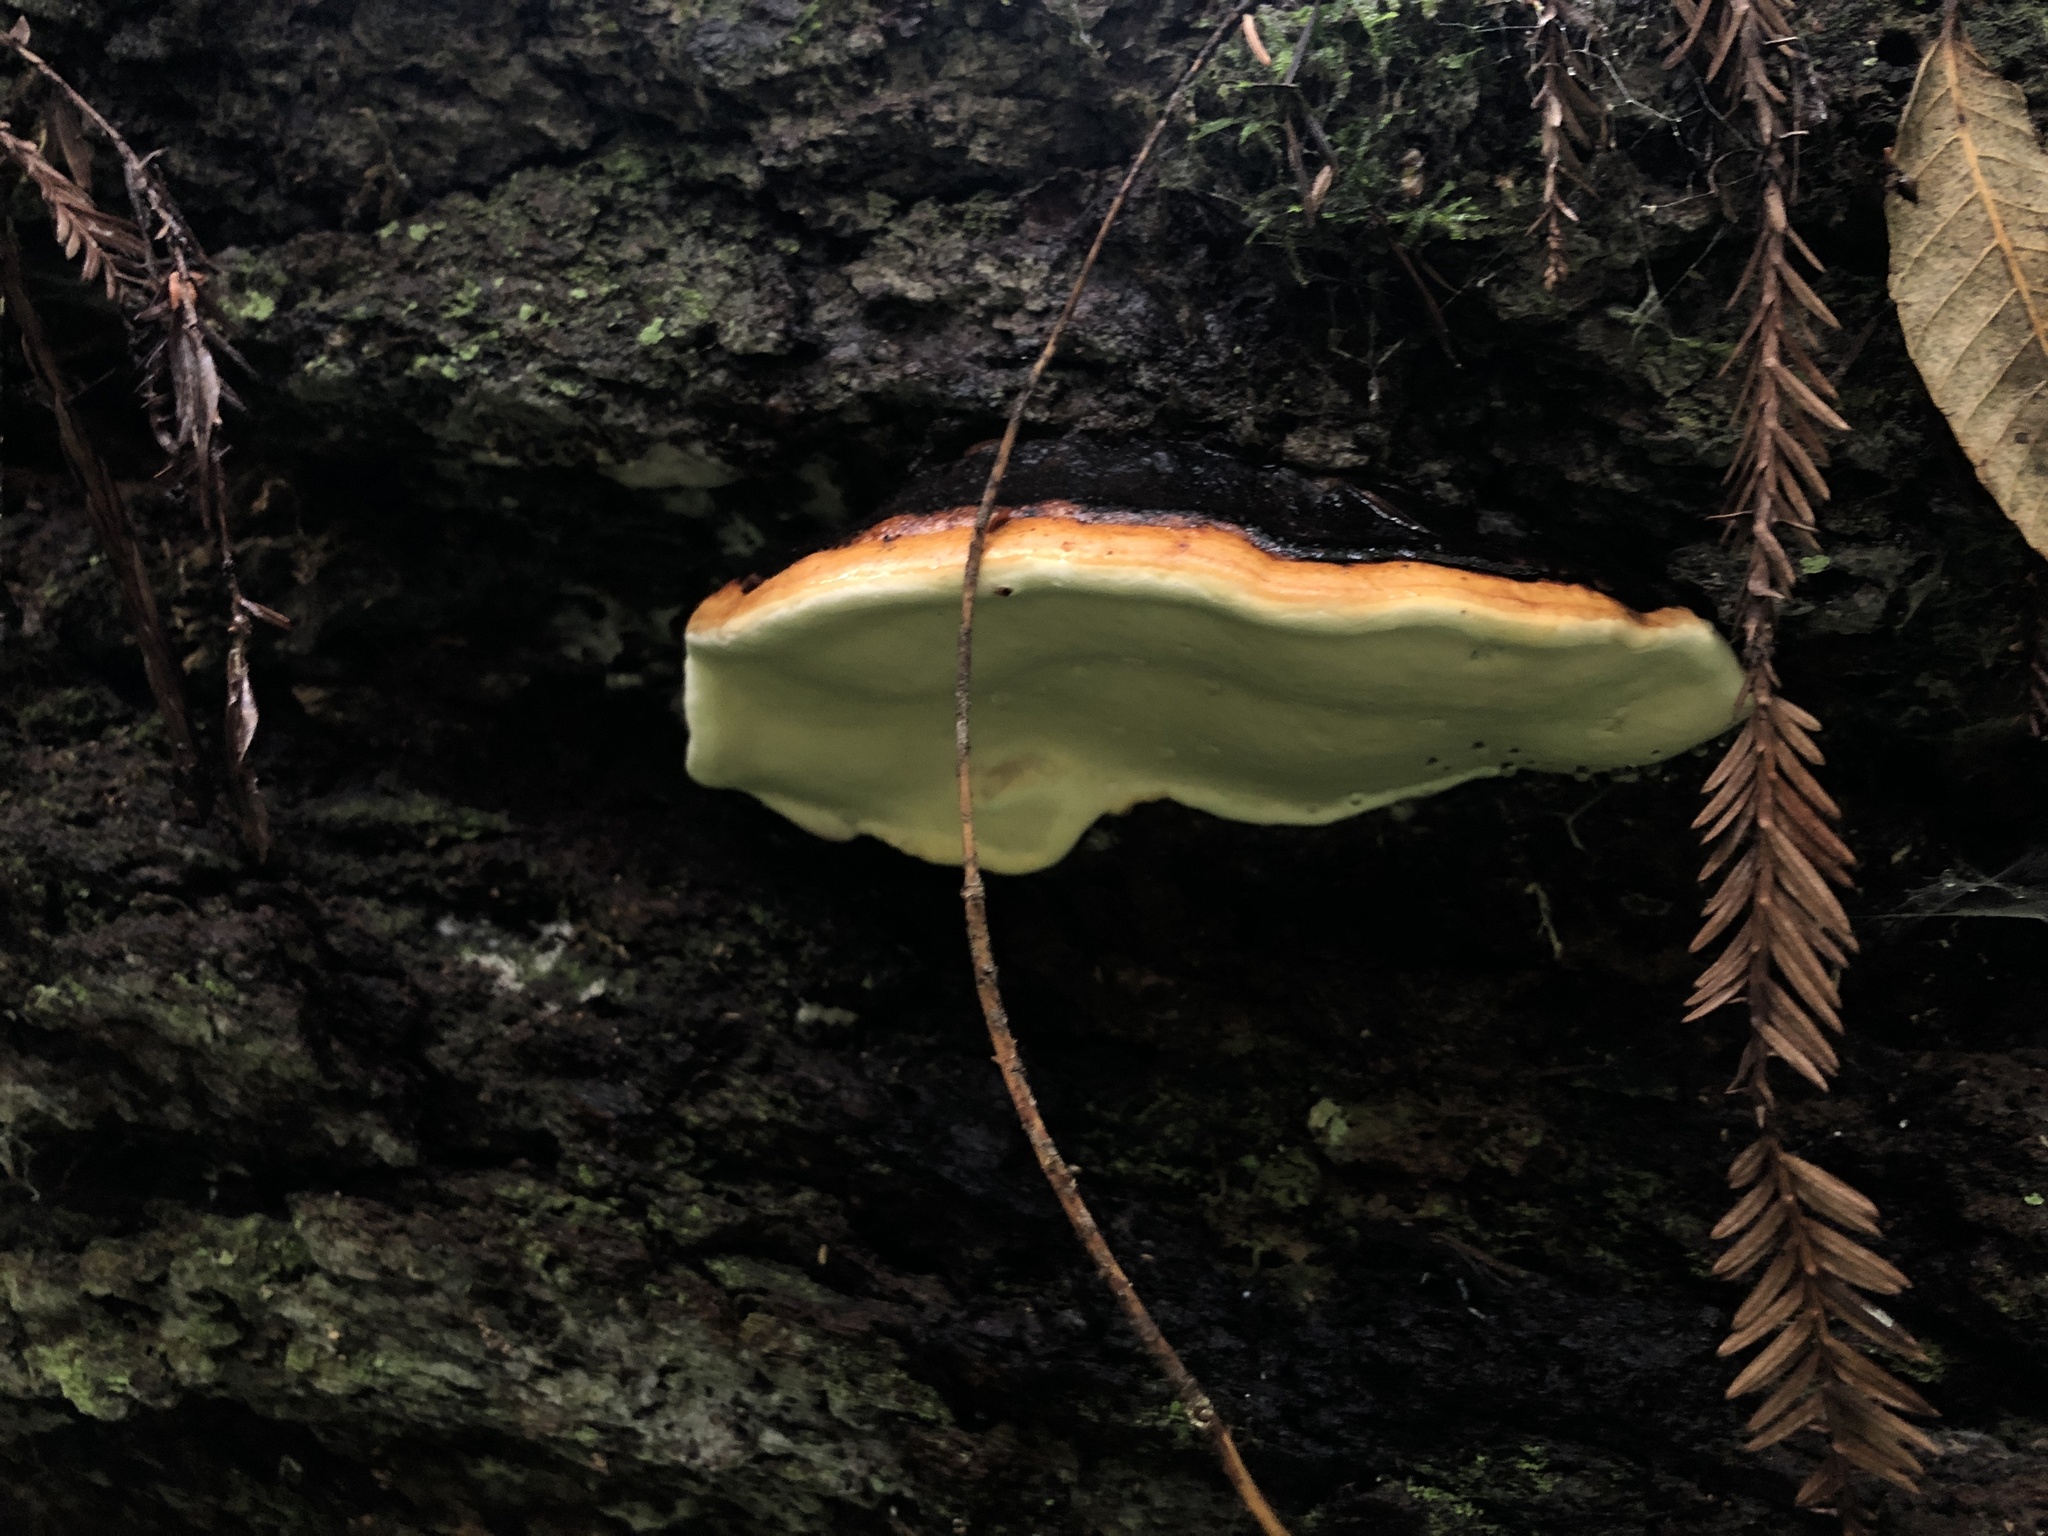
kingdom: Fungi
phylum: Basidiomycota
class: Agaricomycetes
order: Polyporales
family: Fomitopsidaceae
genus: Fomitopsis
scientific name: Fomitopsis mounceae
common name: Northern red belt
